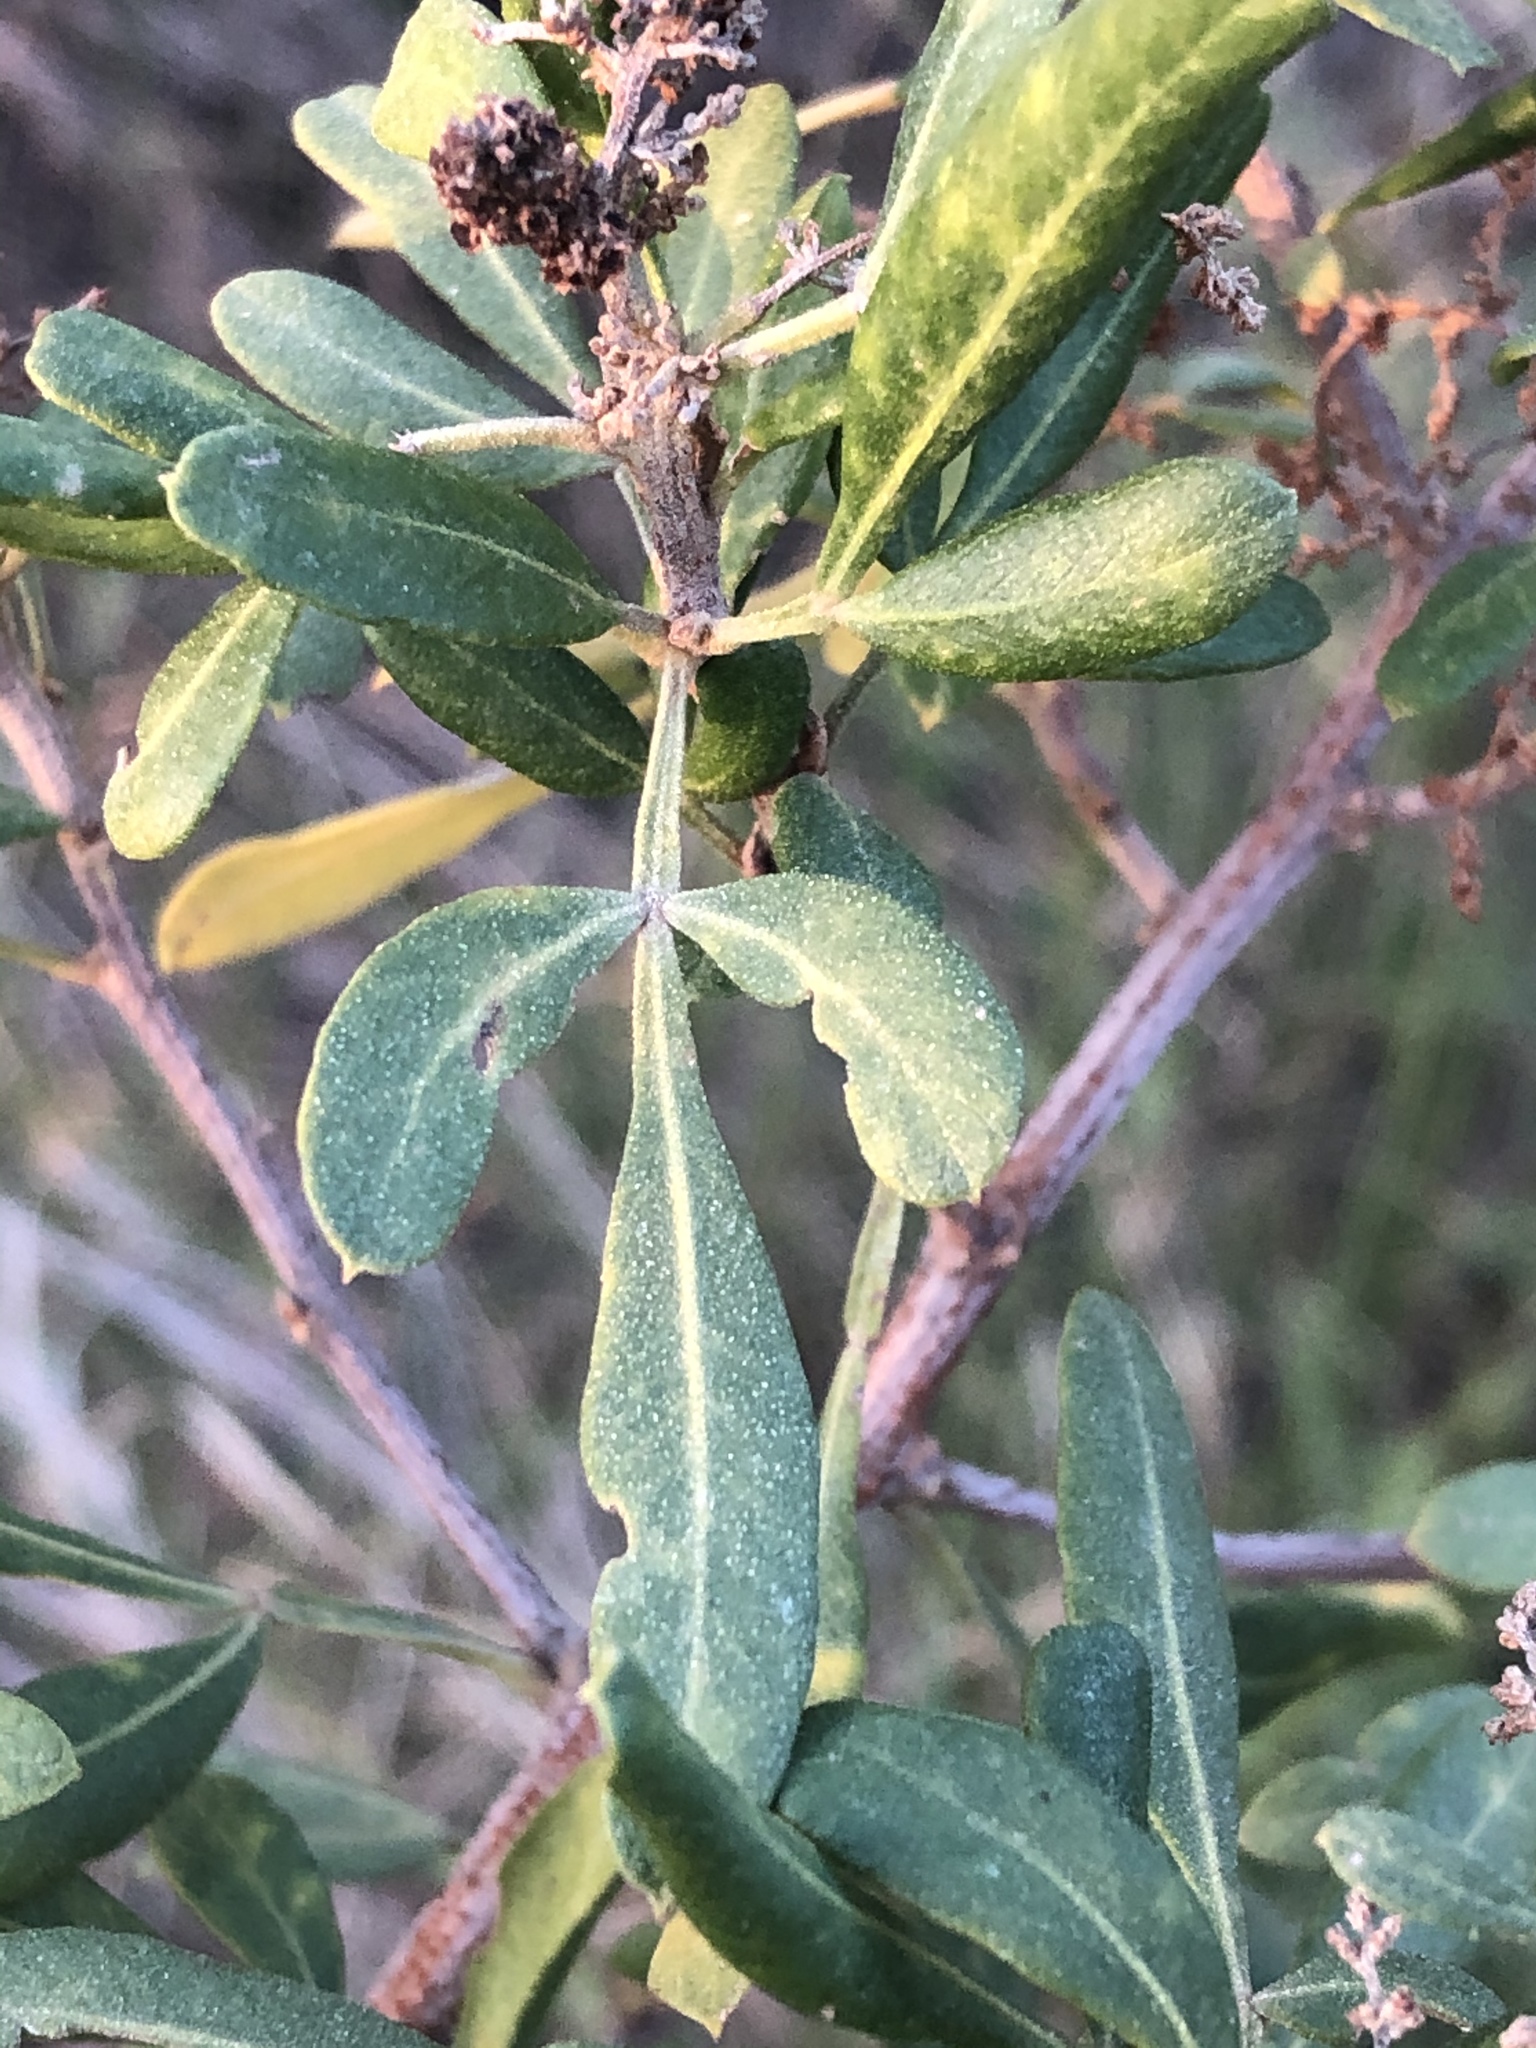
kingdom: Plantae
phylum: Tracheophyta
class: Magnoliopsida
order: Sapindales
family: Anacardiaceae
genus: Searsia
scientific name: Searsia pallens
